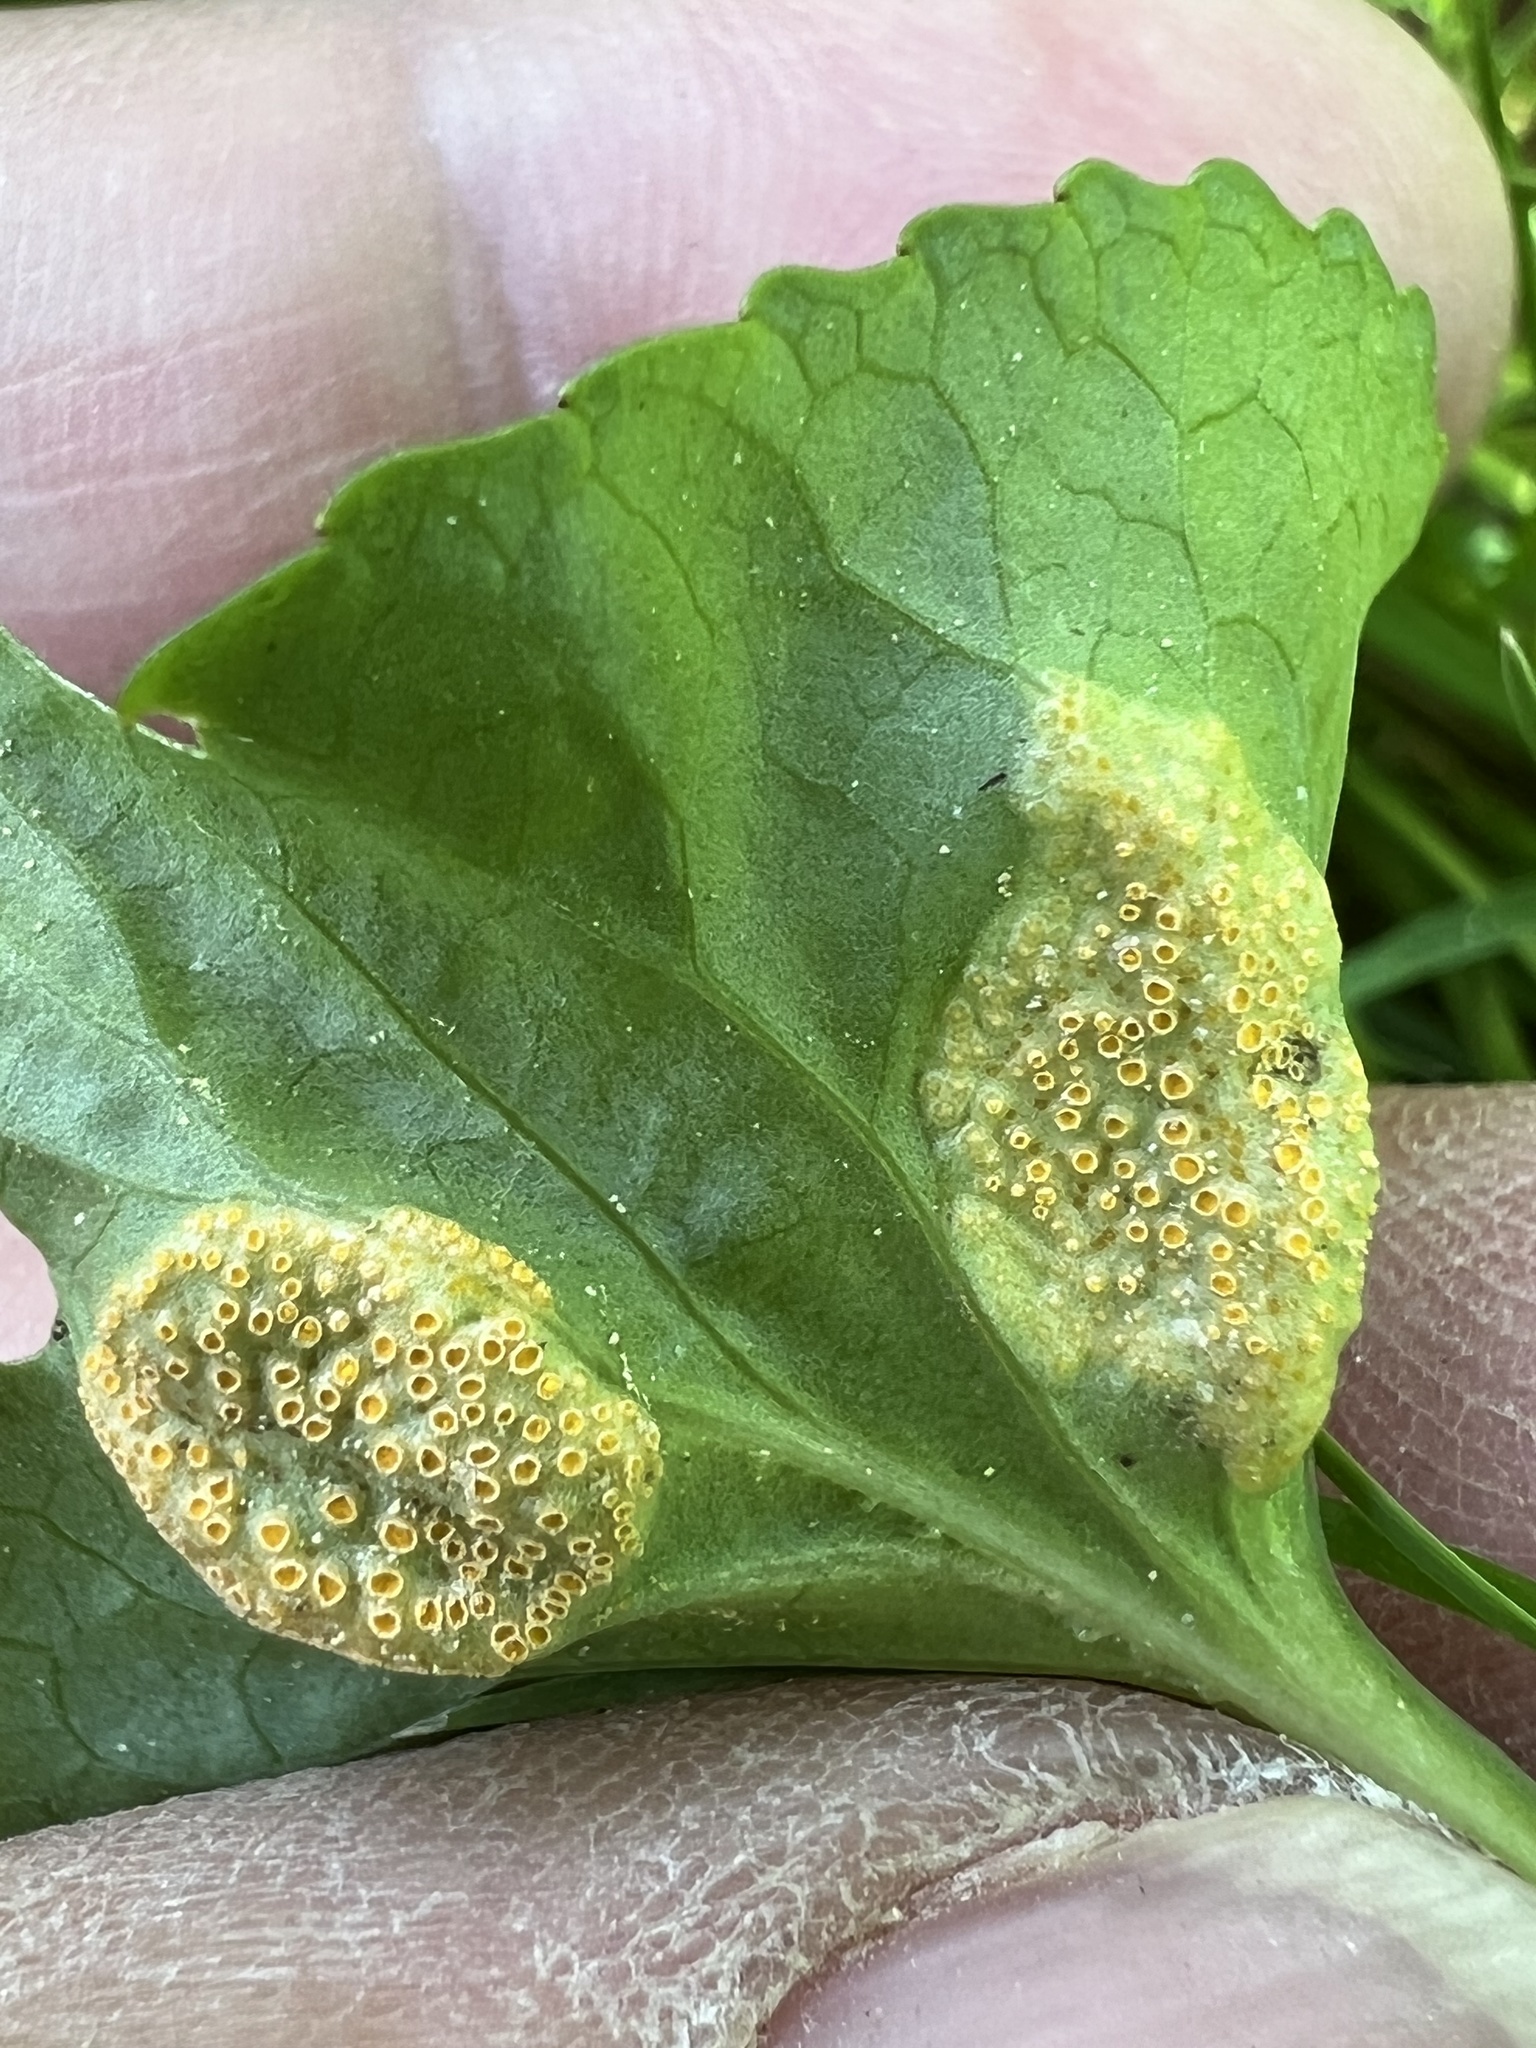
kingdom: Fungi
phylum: Basidiomycota
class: Pucciniomycetes
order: Pucciniales
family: Pucciniaceae
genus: Puccinia
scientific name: Puccinia violae
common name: Violet rust
